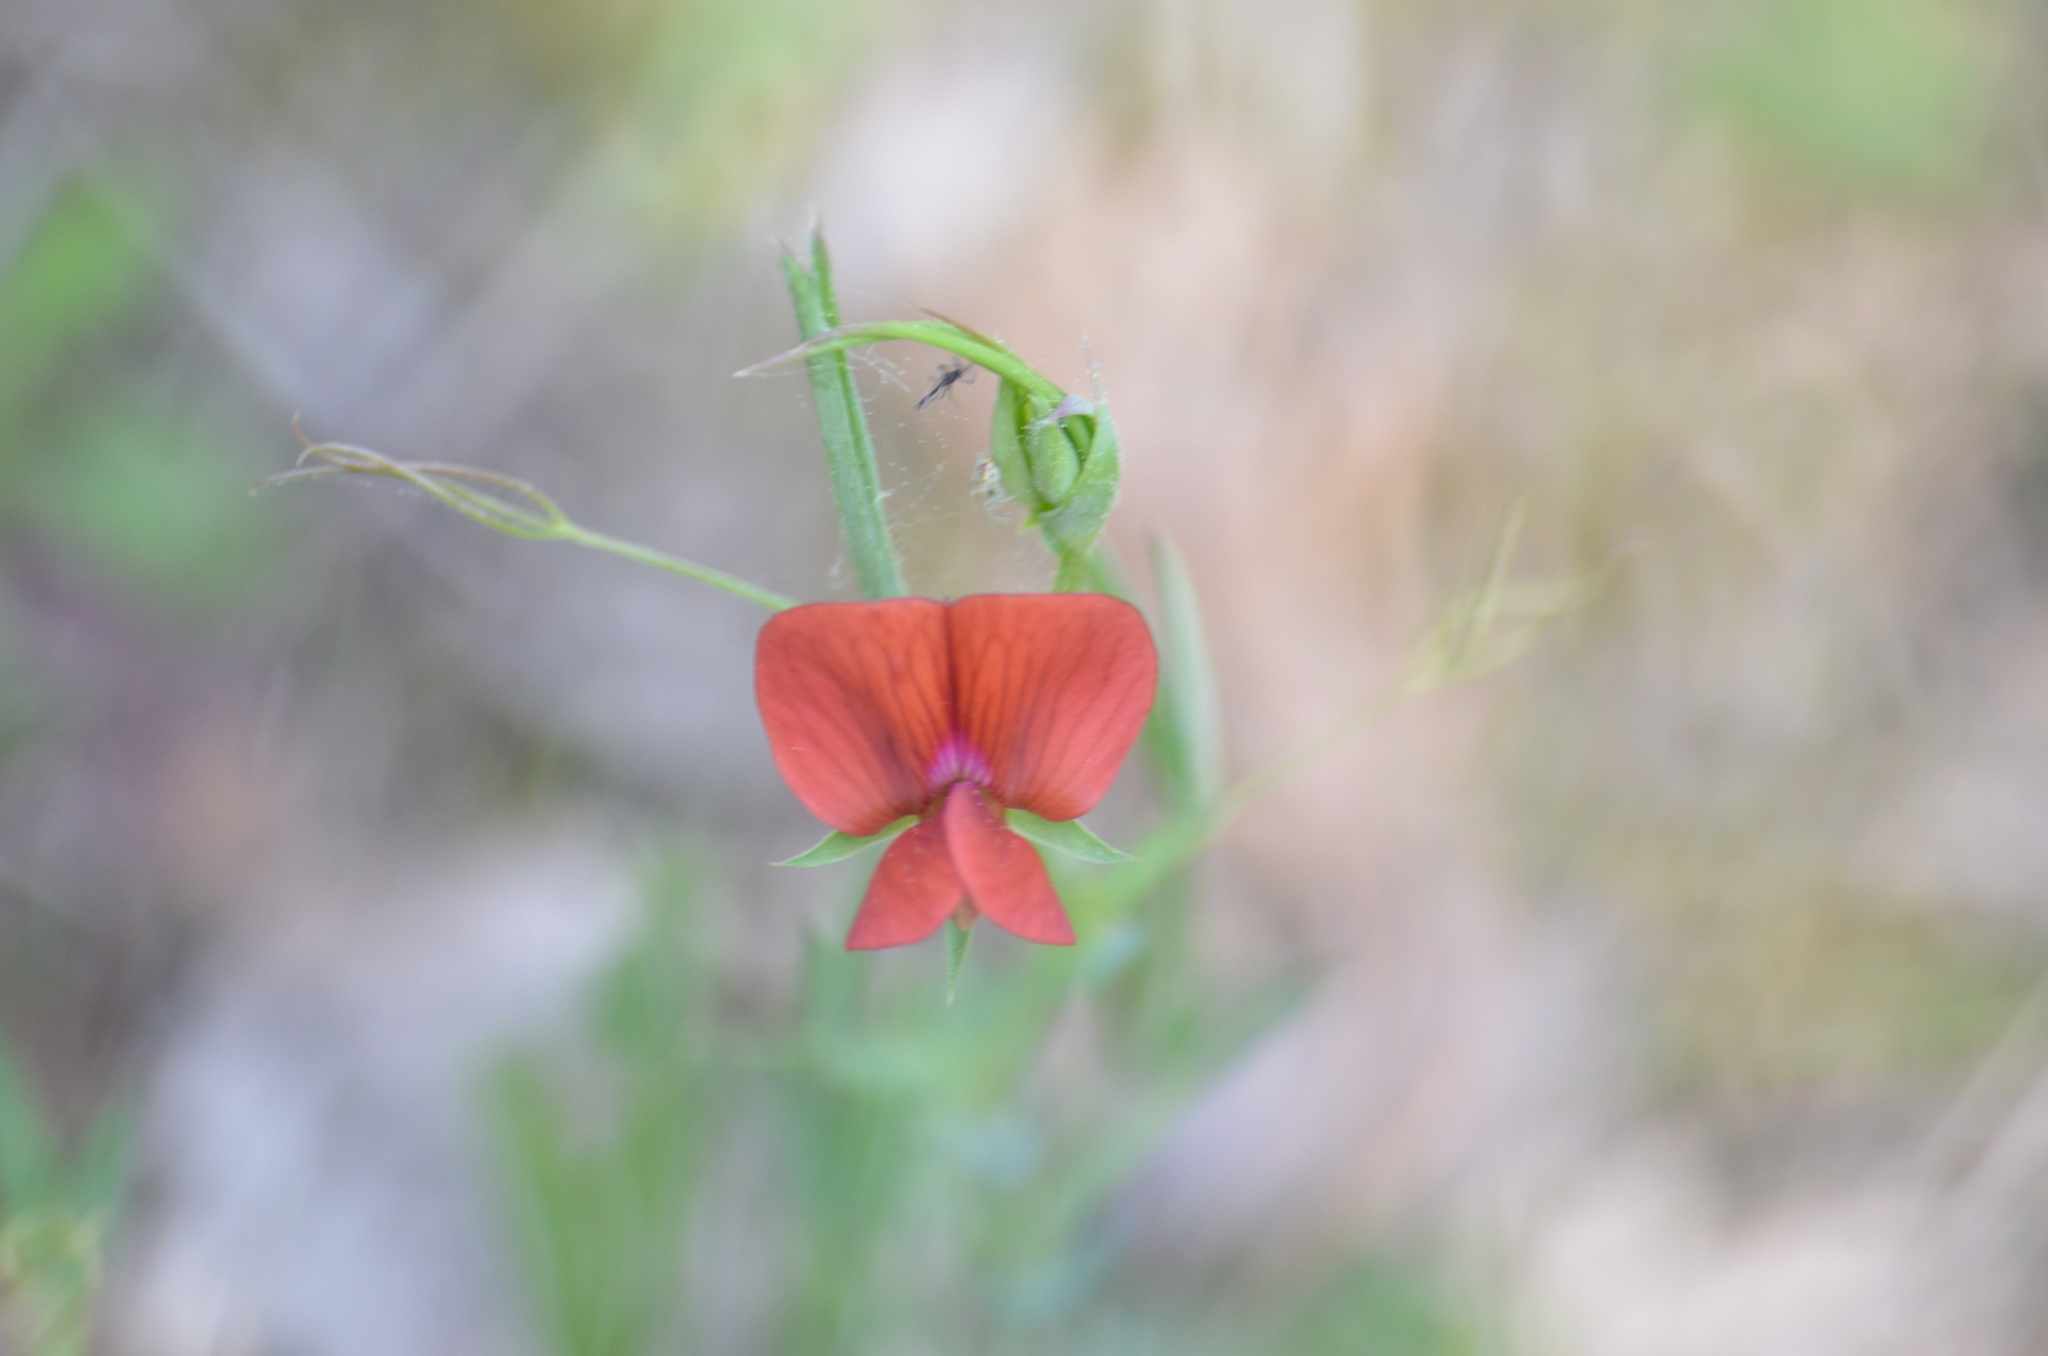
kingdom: Plantae
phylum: Tracheophyta
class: Magnoliopsida
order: Fabales
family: Fabaceae
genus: Lathyrus
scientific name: Lathyrus cicera
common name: Red vetchling
